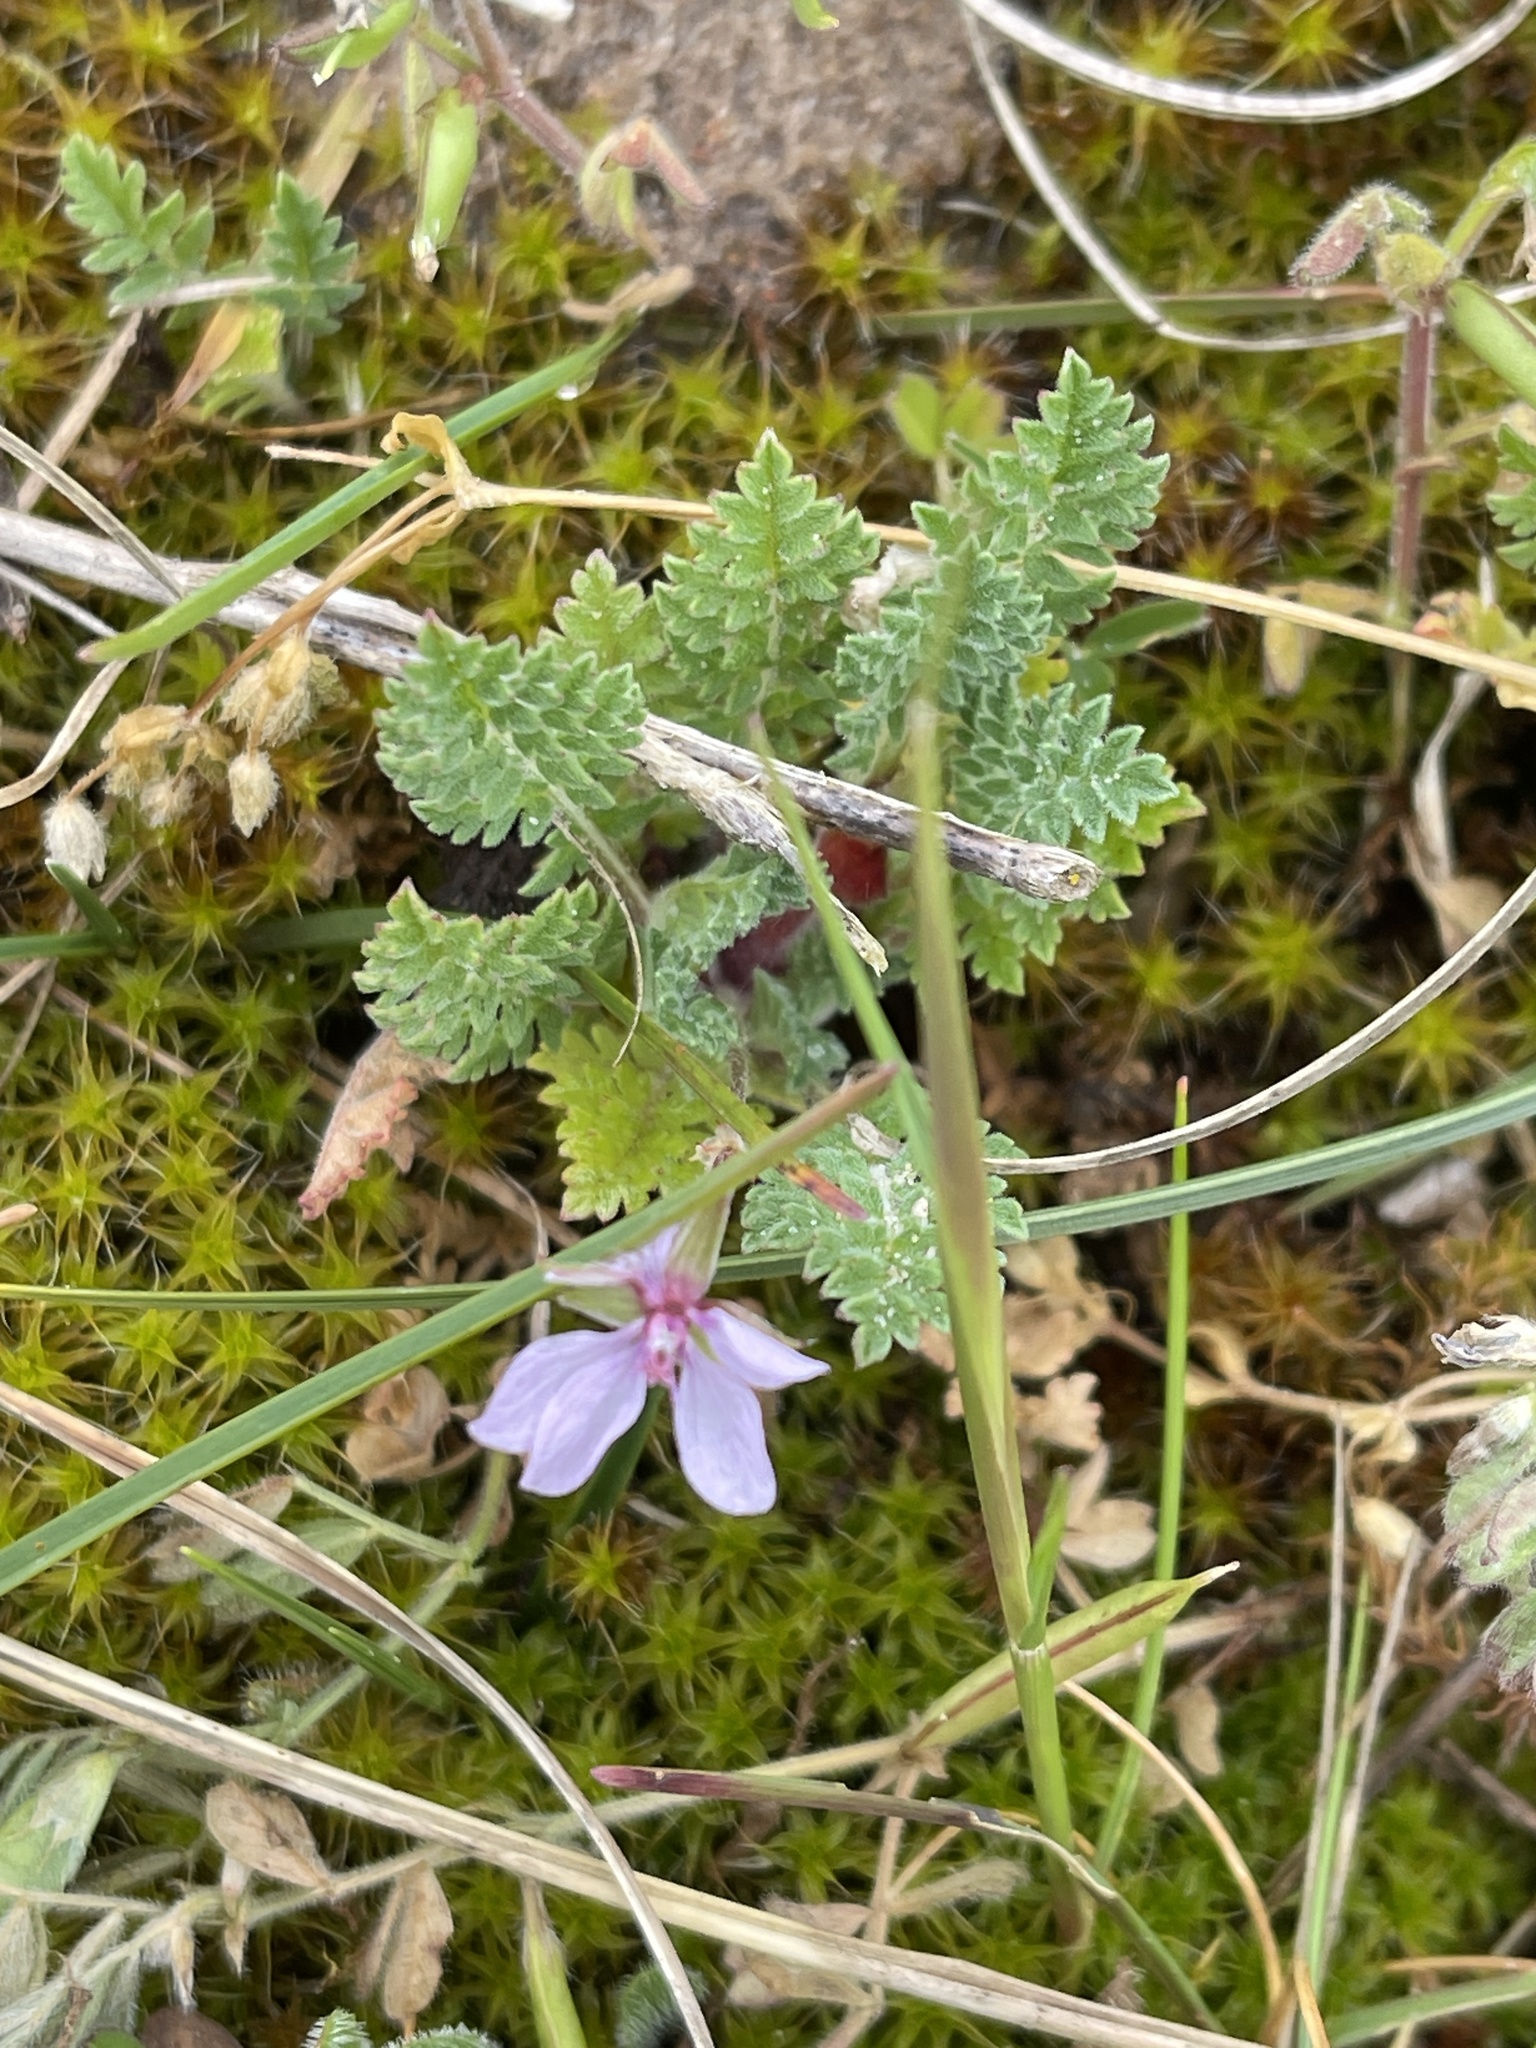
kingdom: Plantae
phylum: Tracheophyta
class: Magnoliopsida
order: Geraniales
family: Geraniaceae
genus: Erodium
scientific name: Erodium cicutarium
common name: Common stork's-bill
